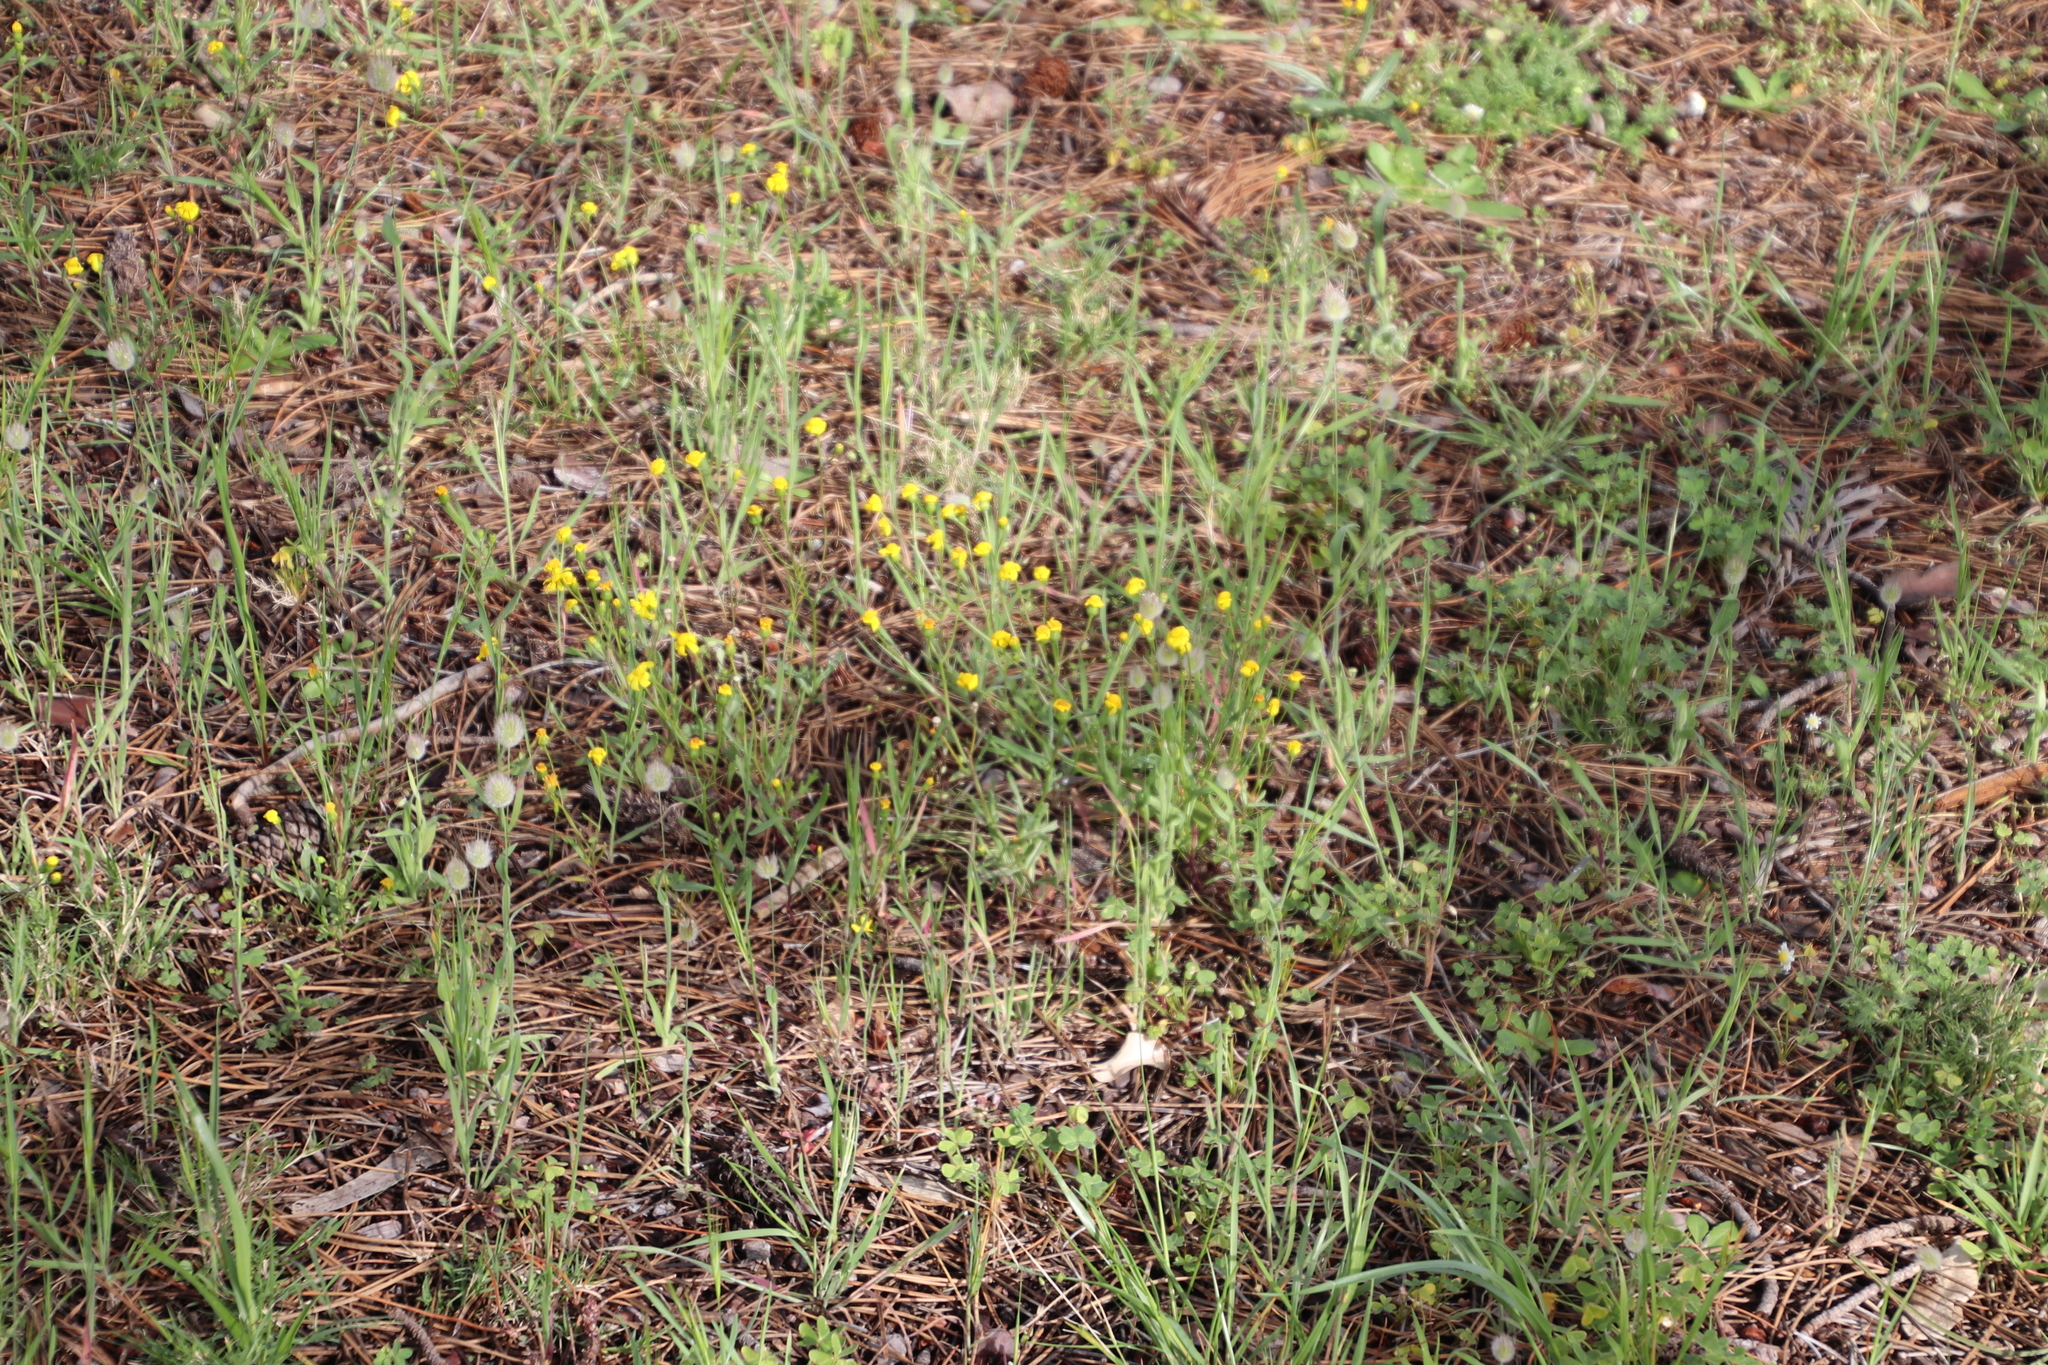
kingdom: Plantae
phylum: Tracheophyta
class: Magnoliopsida
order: Asterales
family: Asteraceae
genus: Senecio
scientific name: Senecio littoreus
